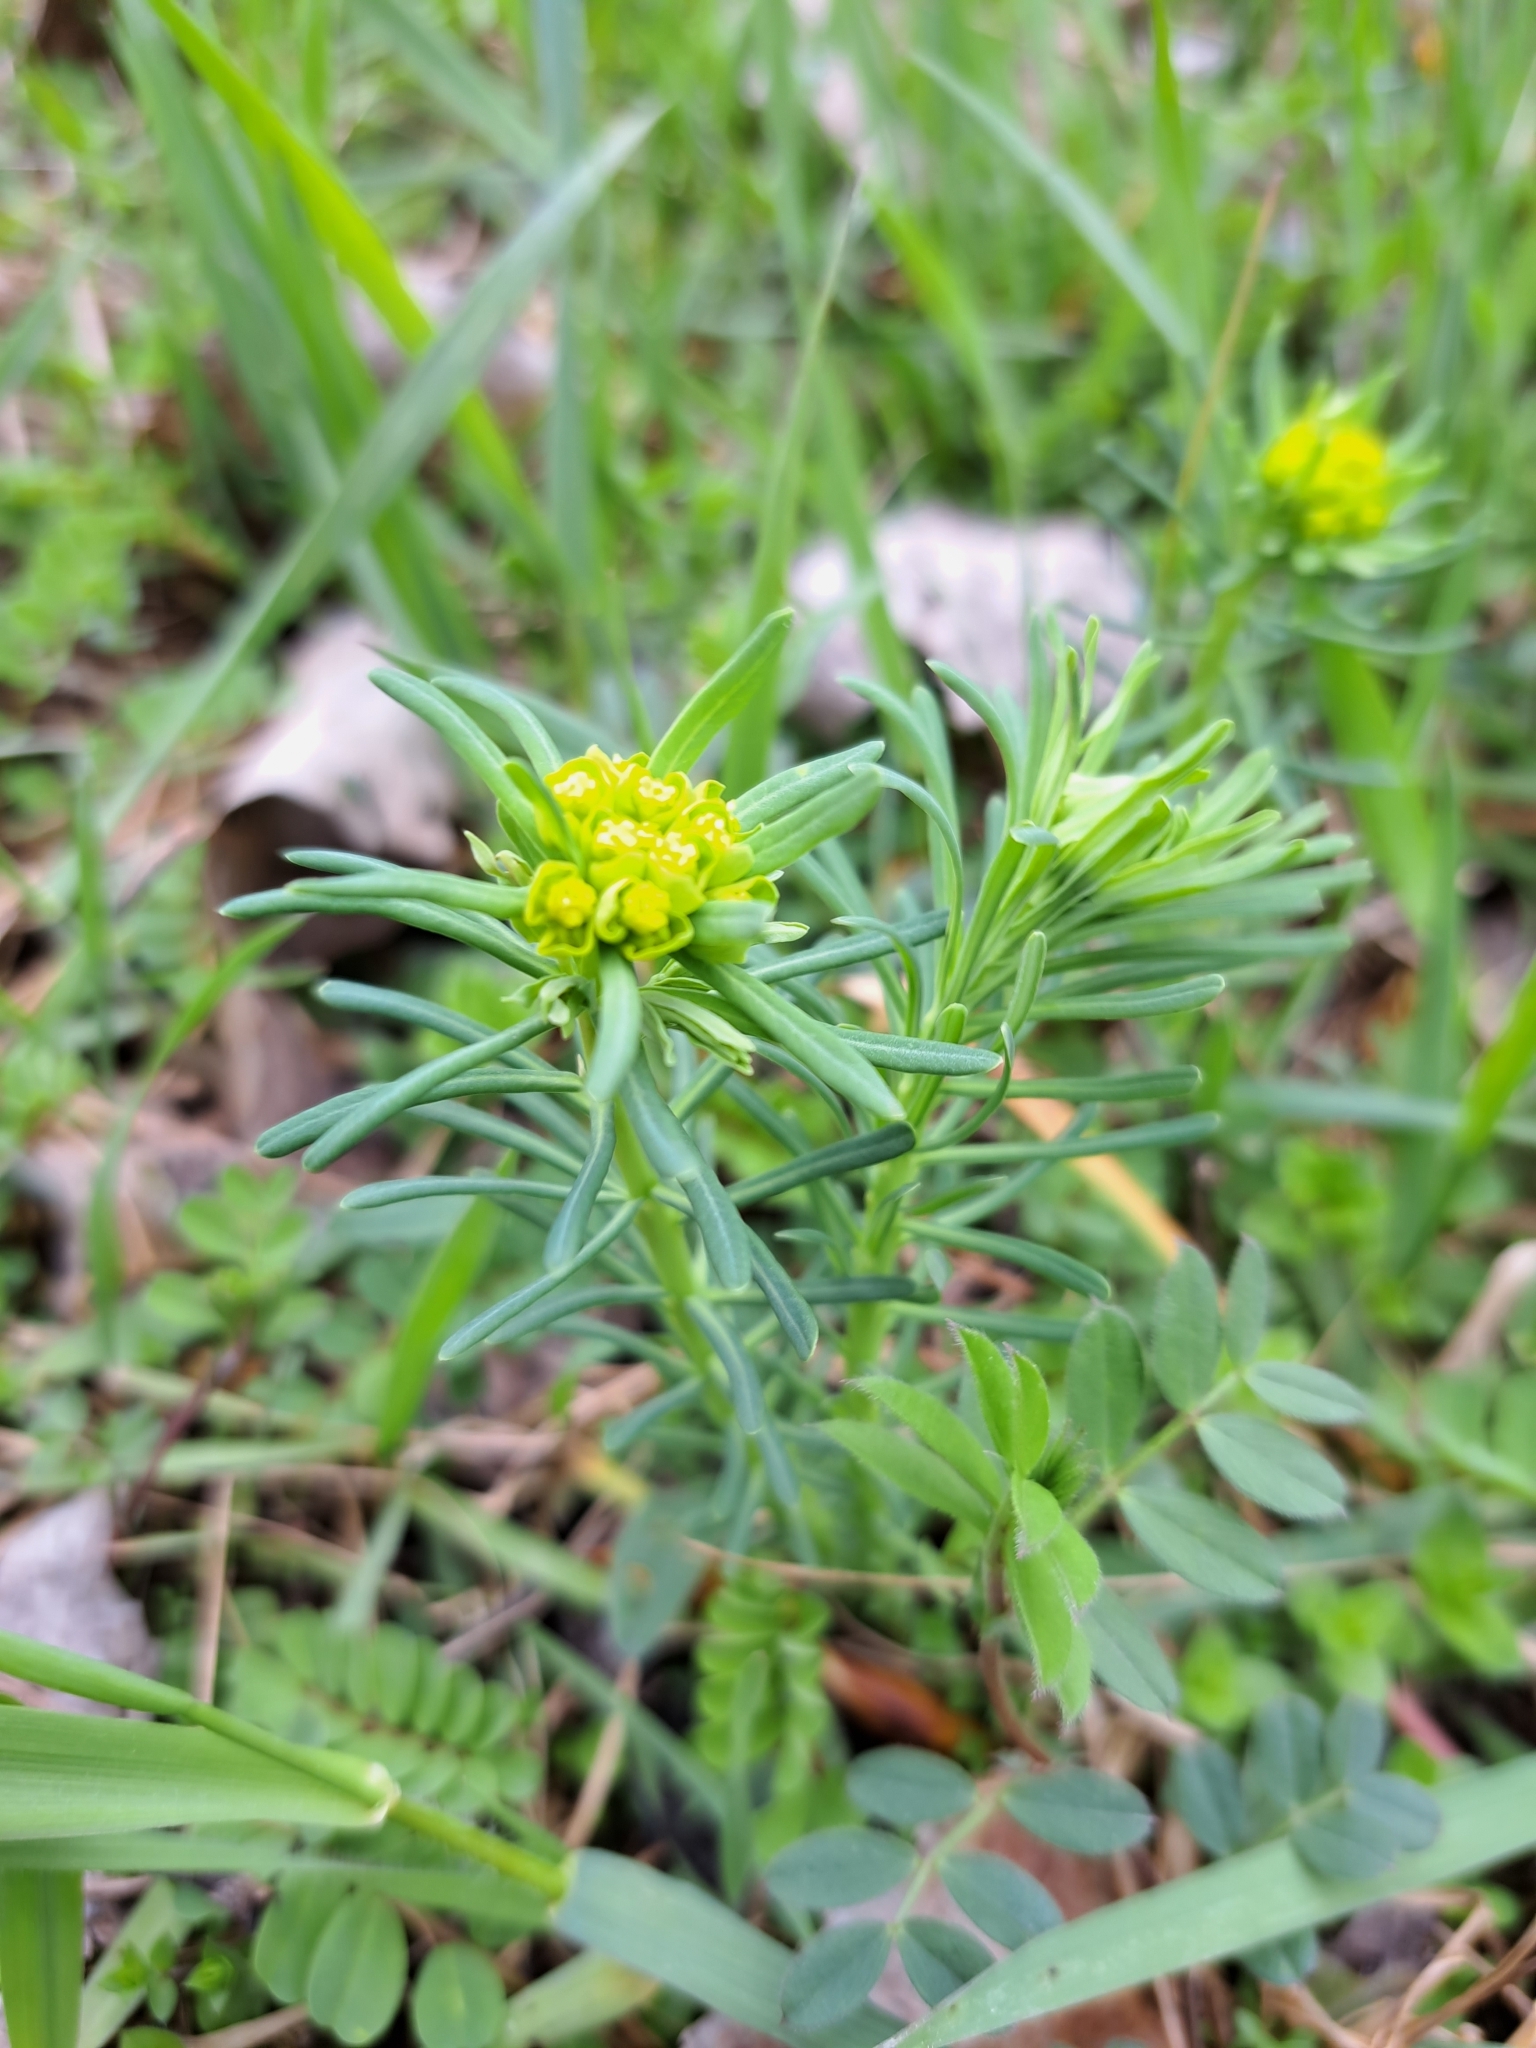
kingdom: Plantae
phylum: Tracheophyta
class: Magnoliopsida
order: Malpighiales
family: Euphorbiaceae
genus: Euphorbia
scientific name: Euphorbia cyparissias
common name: Cypress spurge
